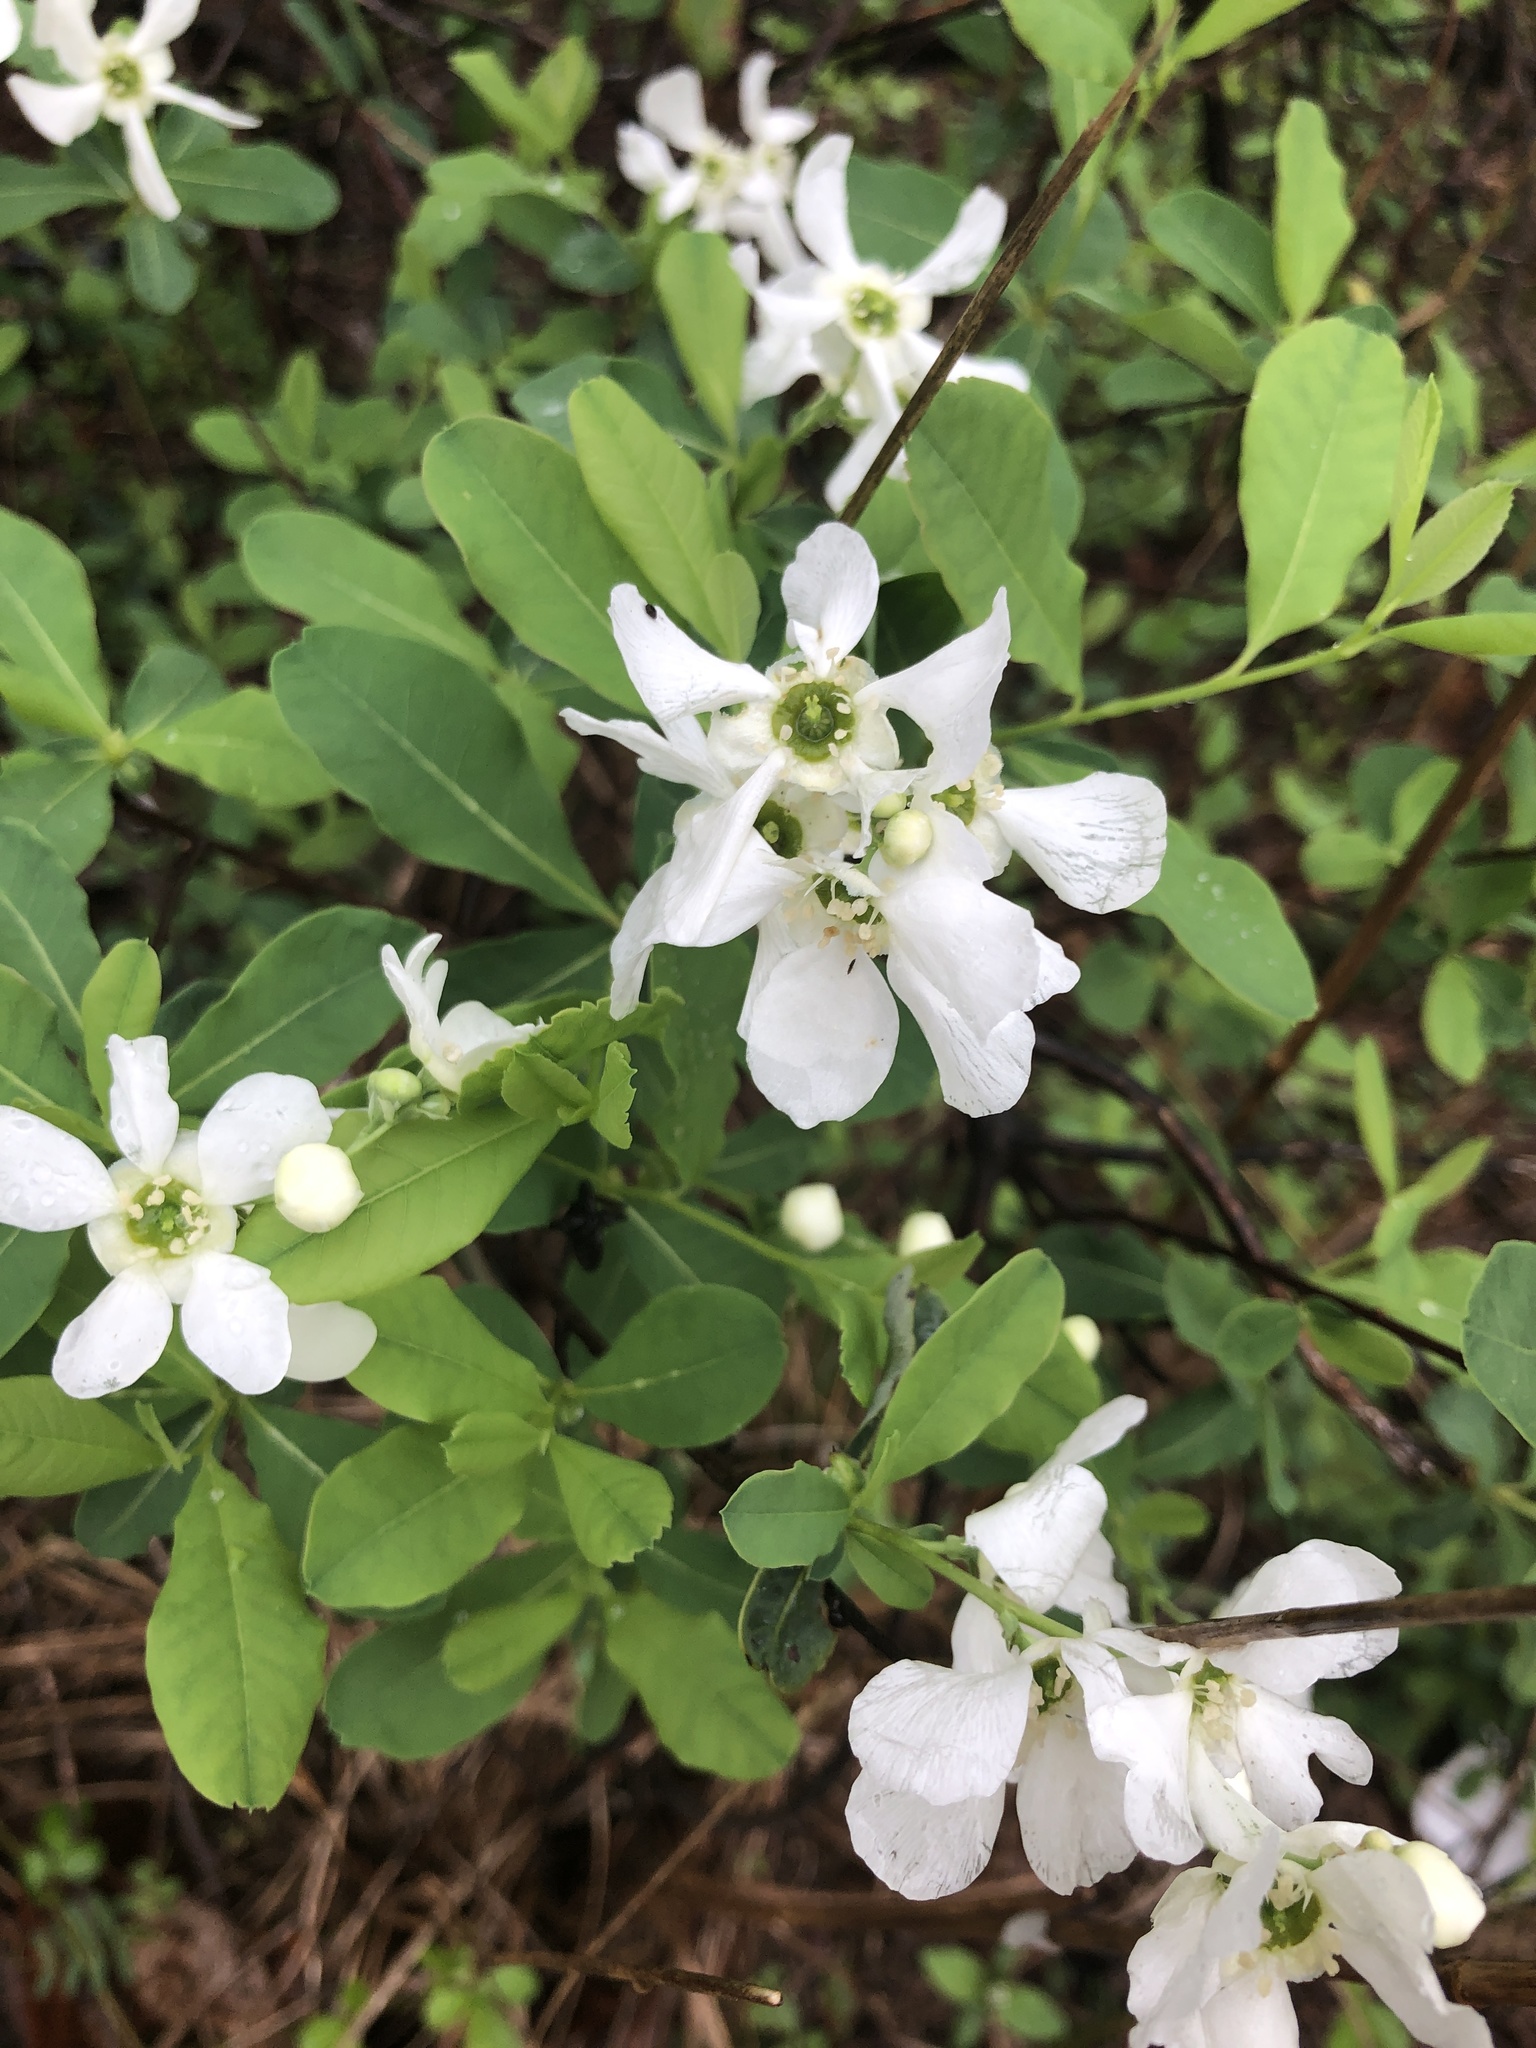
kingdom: Plantae
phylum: Tracheophyta
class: Magnoliopsida
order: Rosales
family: Rosaceae
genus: Exochorda
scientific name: Exochorda racemosa
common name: Common pearlbrush
